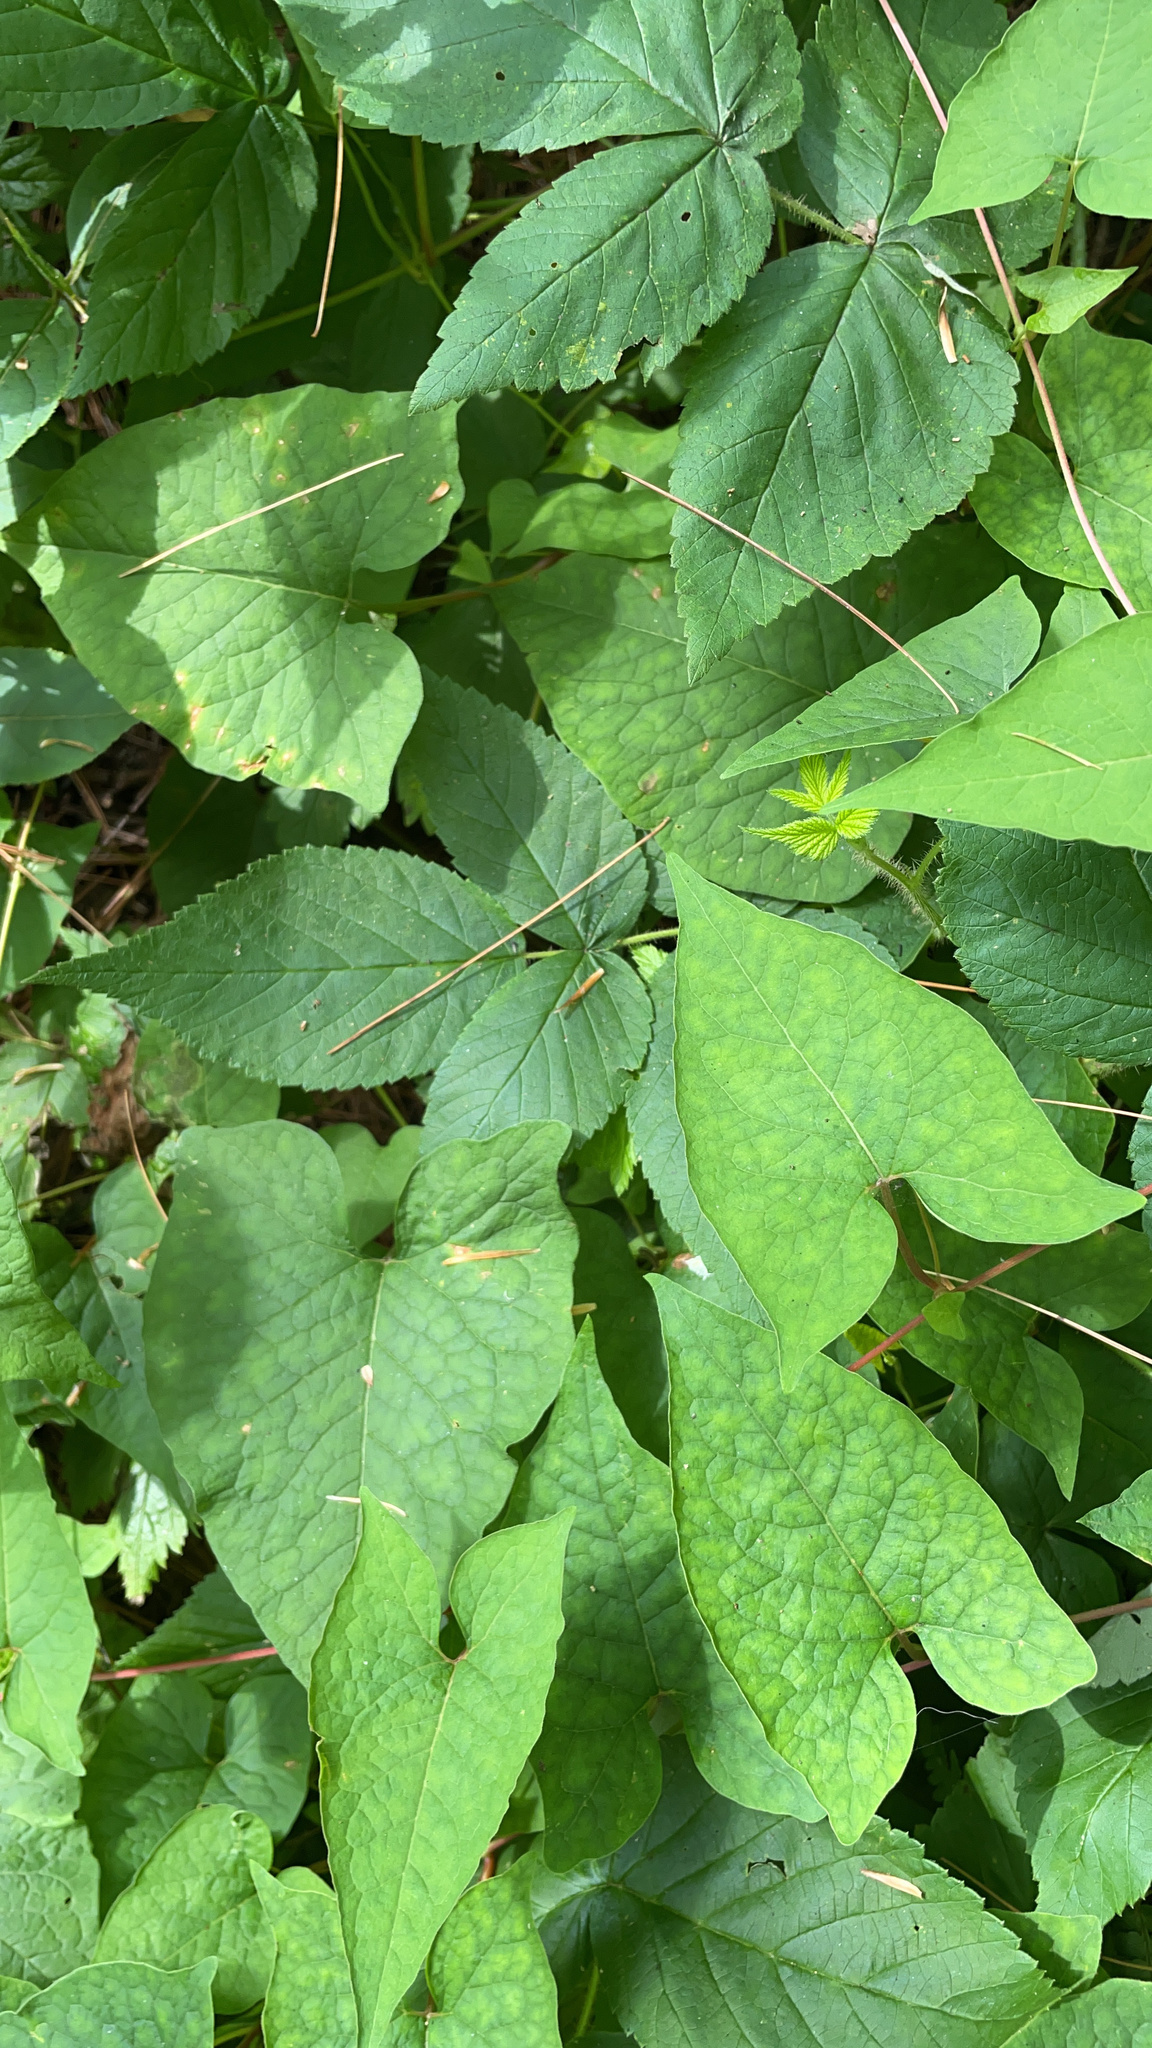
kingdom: Plantae
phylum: Tracheophyta
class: Magnoliopsida
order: Caryophyllales
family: Polygonaceae
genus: Parogonum
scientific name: Parogonum ciliinode
